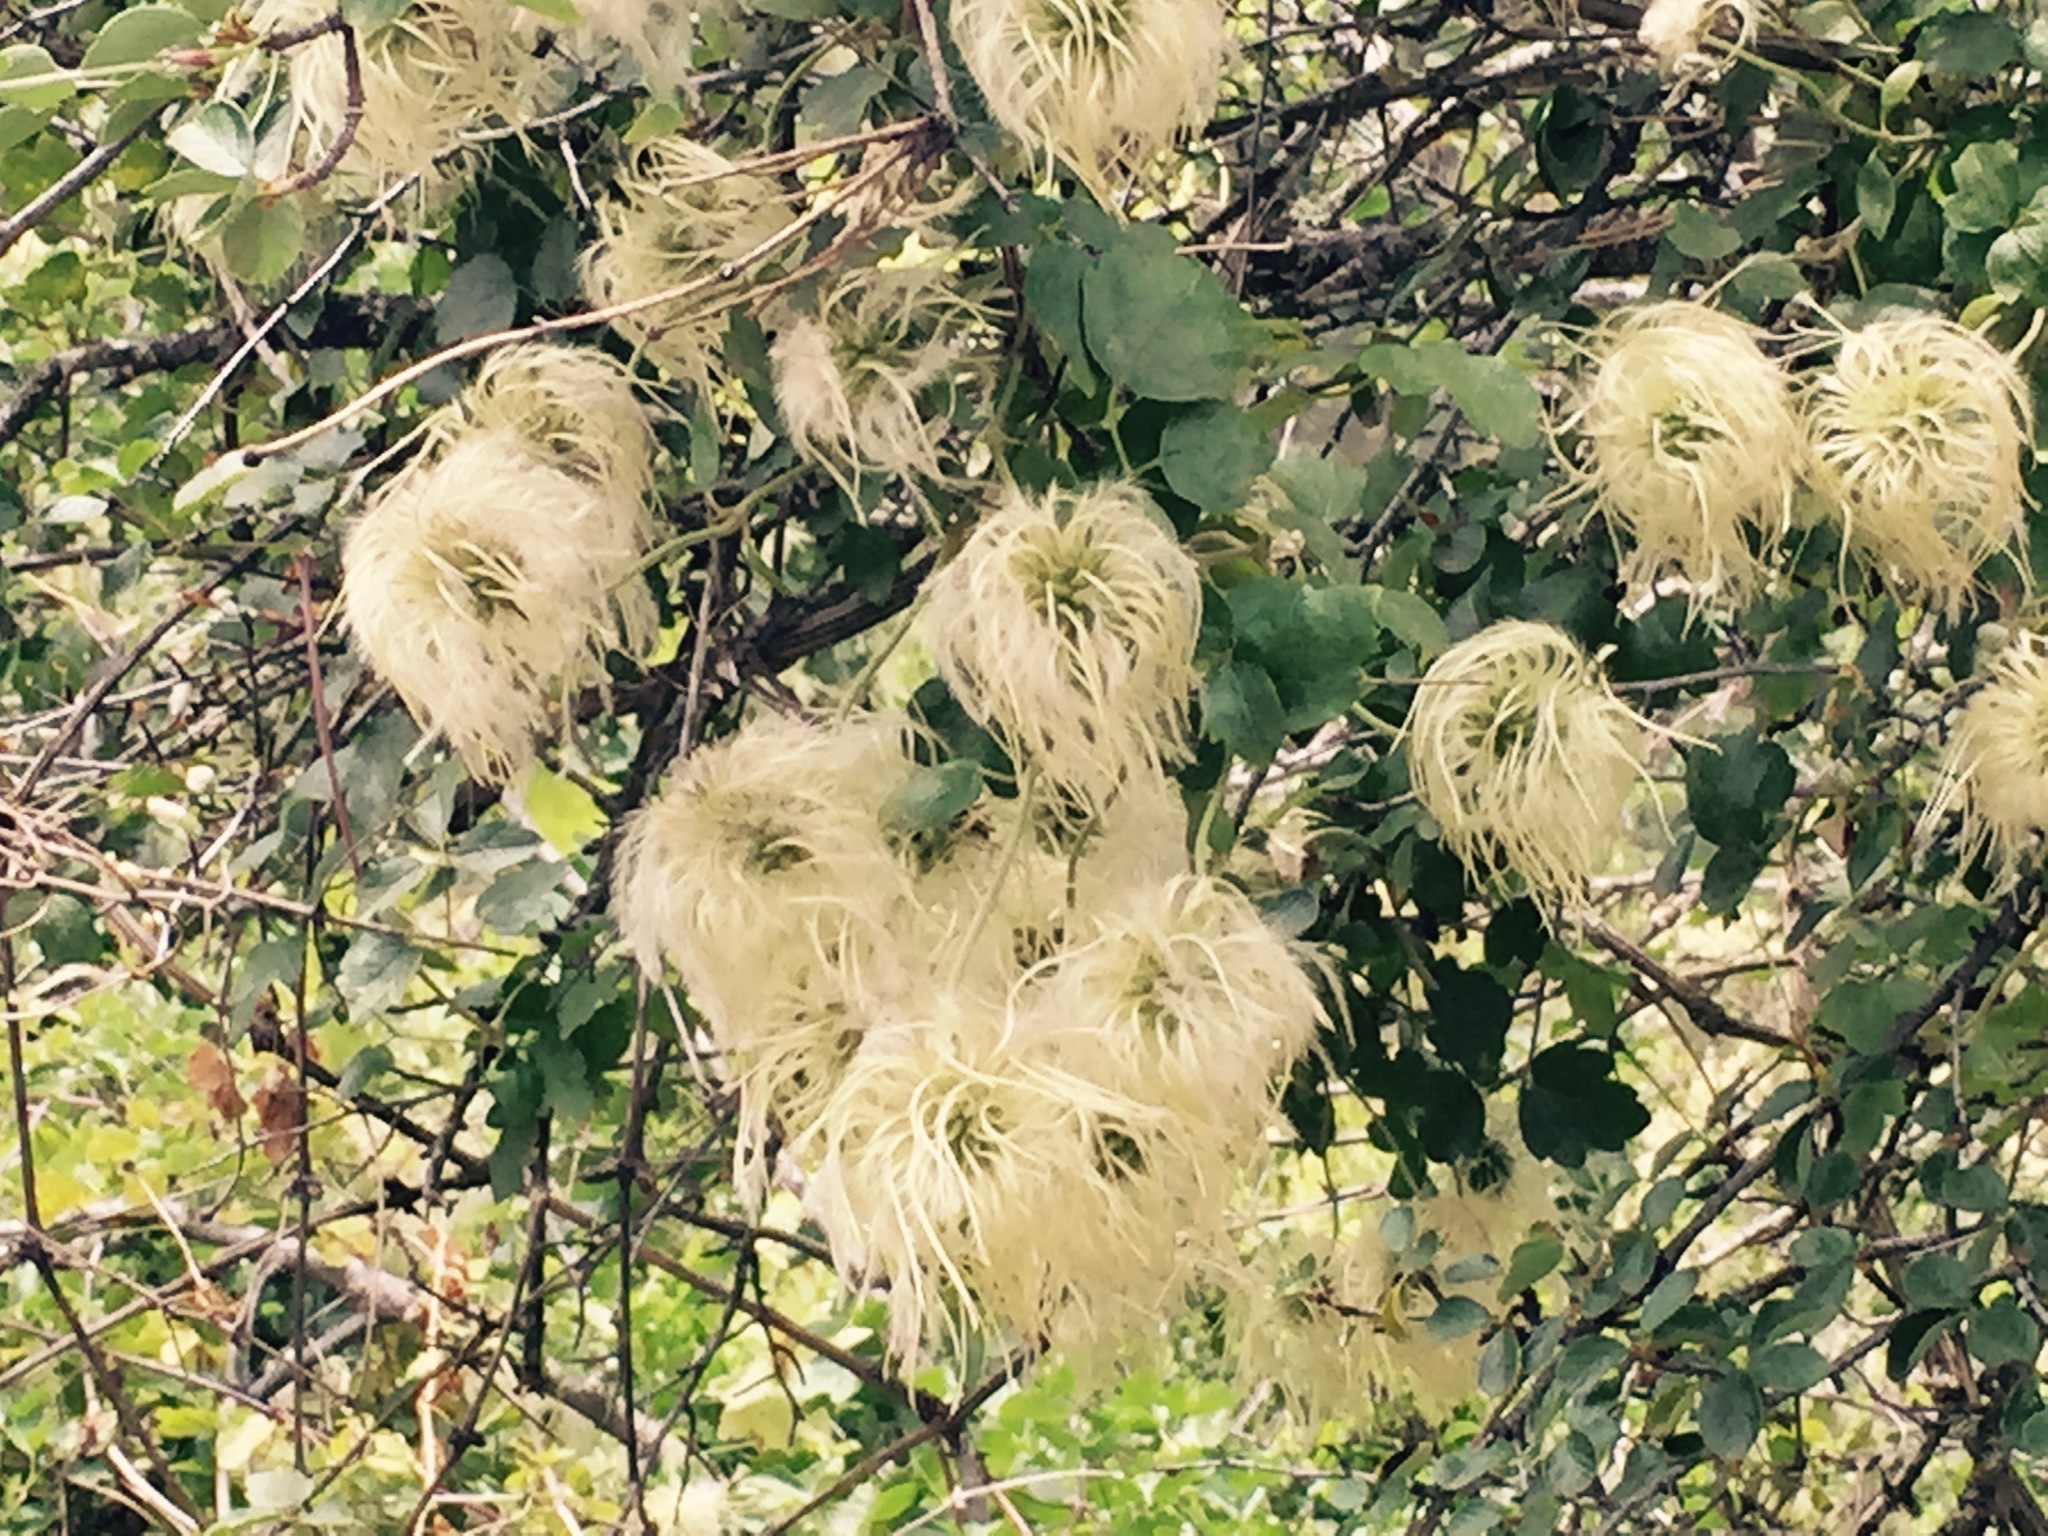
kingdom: Plantae
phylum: Tracheophyta
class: Magnoliopsida
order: Ranunculales
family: Ranunculaceae
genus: Clematis
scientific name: Clematis lasiantha
